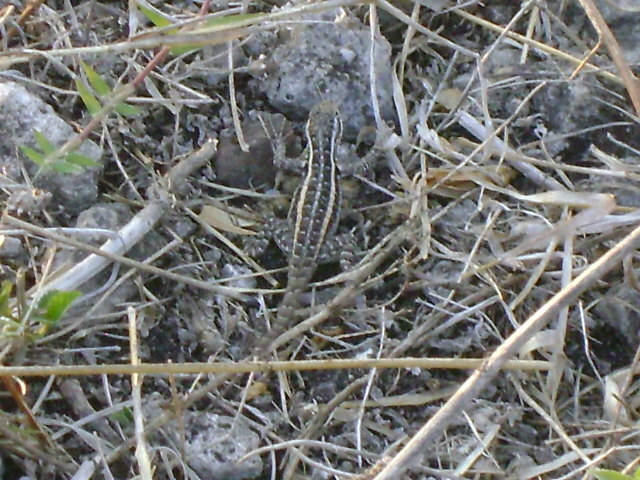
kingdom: Animalia
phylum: Chordata
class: Squamata
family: Phrynosomatidae
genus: Sceloporus
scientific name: Sceloporus variabilis
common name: Rosebelly lizard
